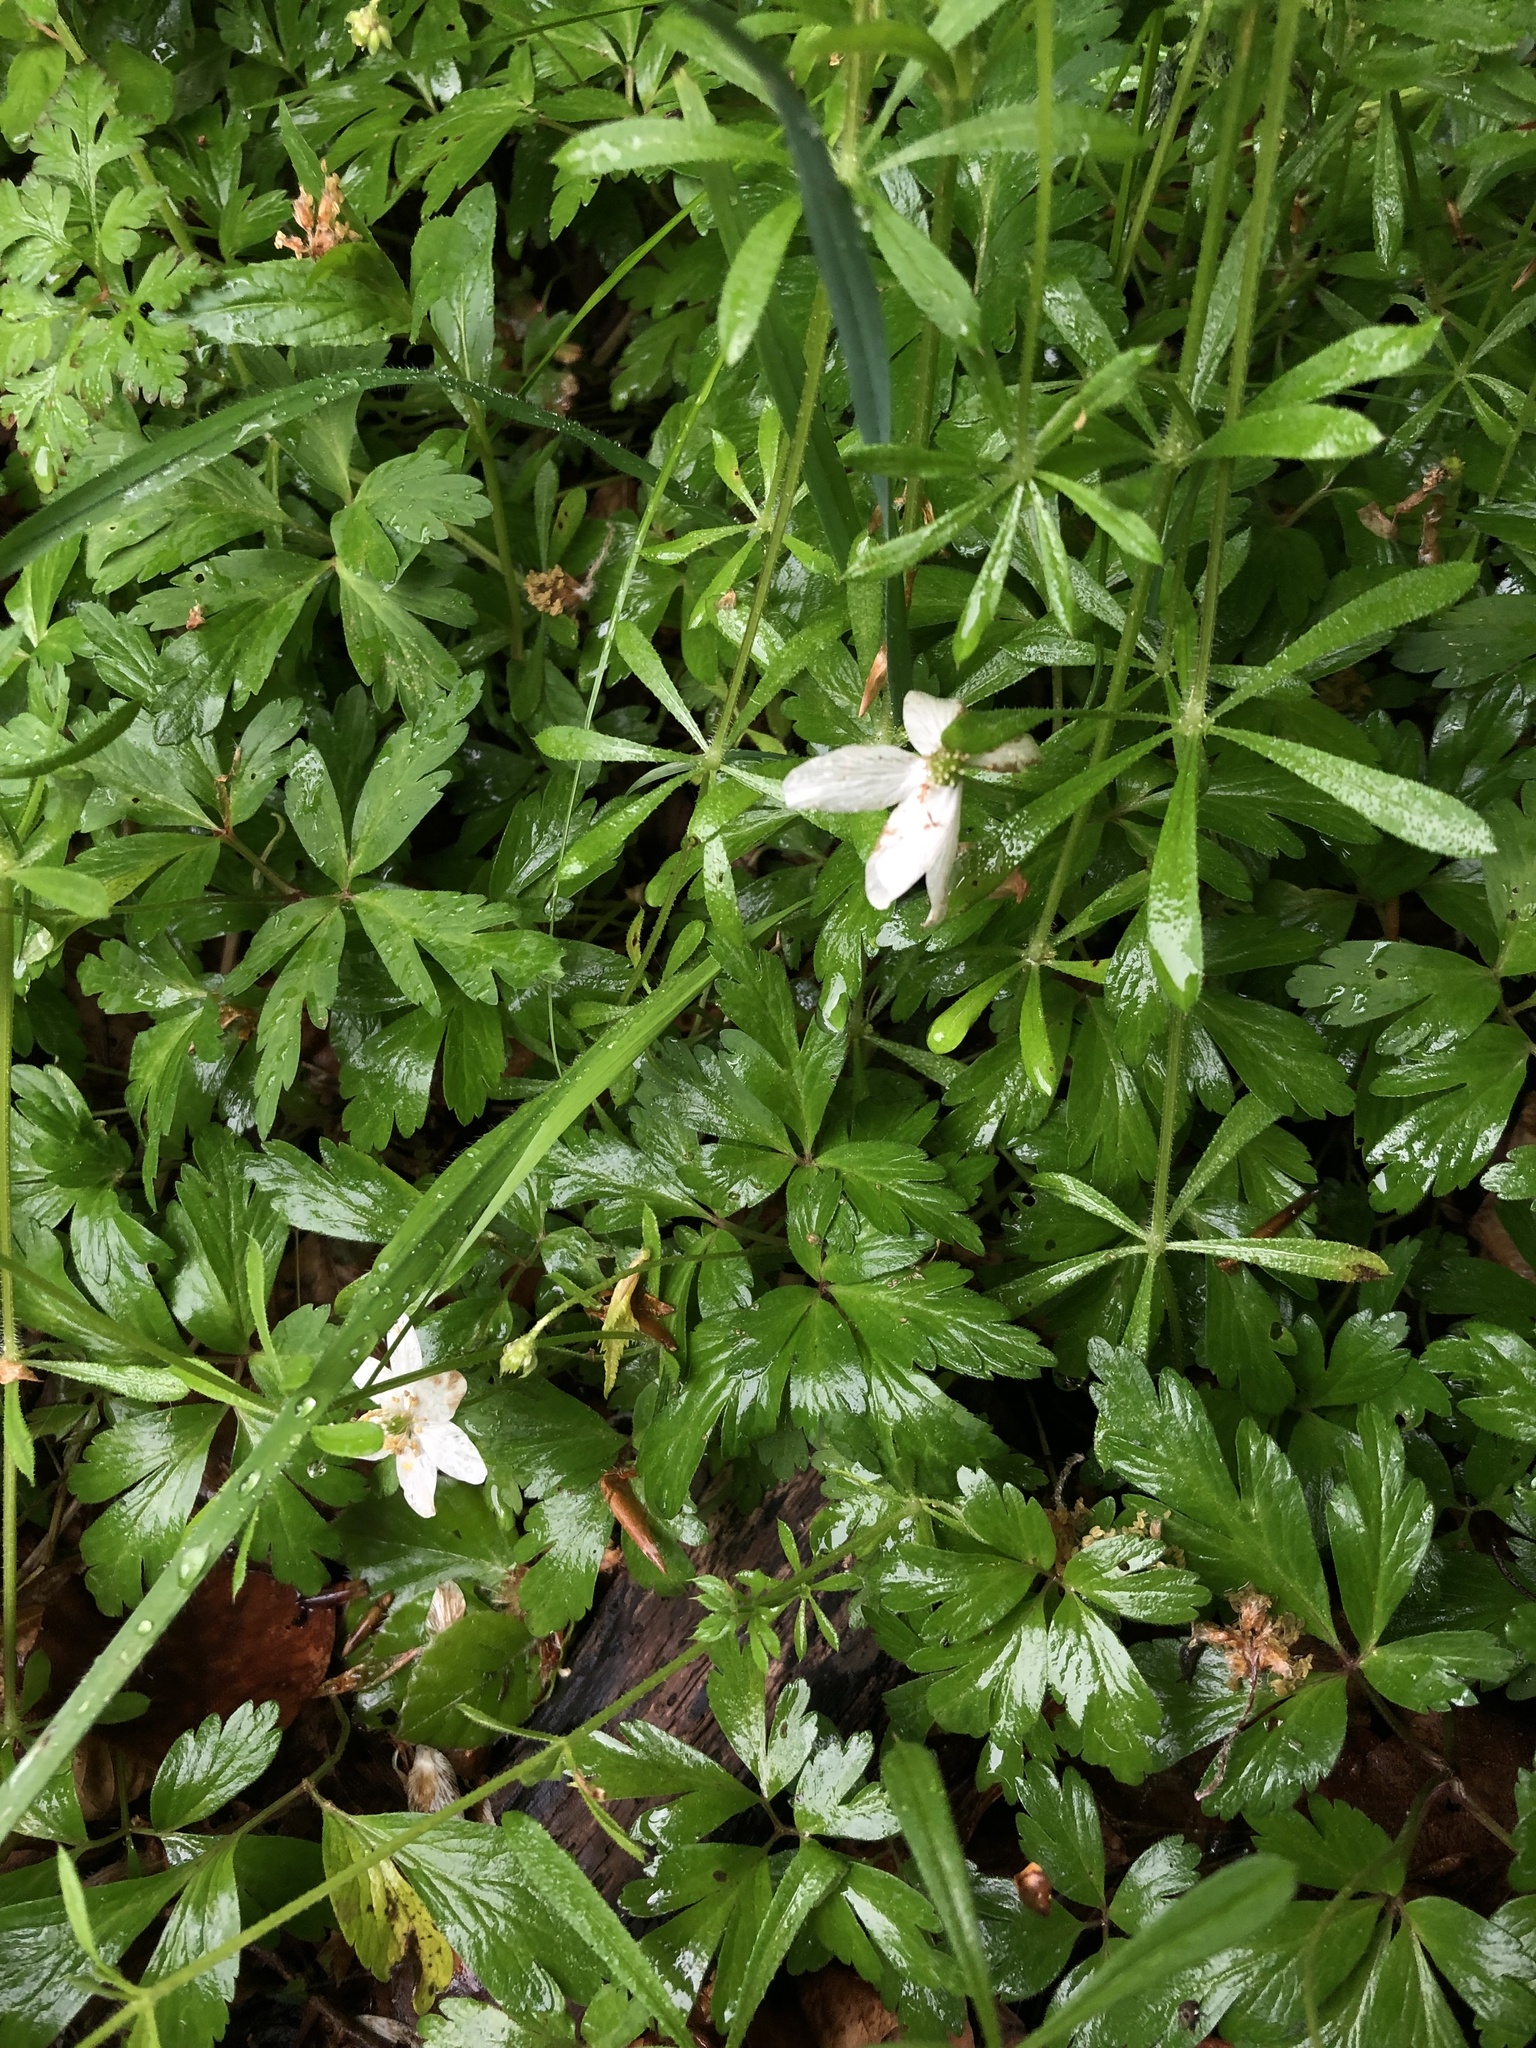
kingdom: Plantae
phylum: Tracheophyta
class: Magnoliopsida
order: Ranunculales
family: Ranunculaceae
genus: Anemone
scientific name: Anemone nemorosa
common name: Wood anemone
